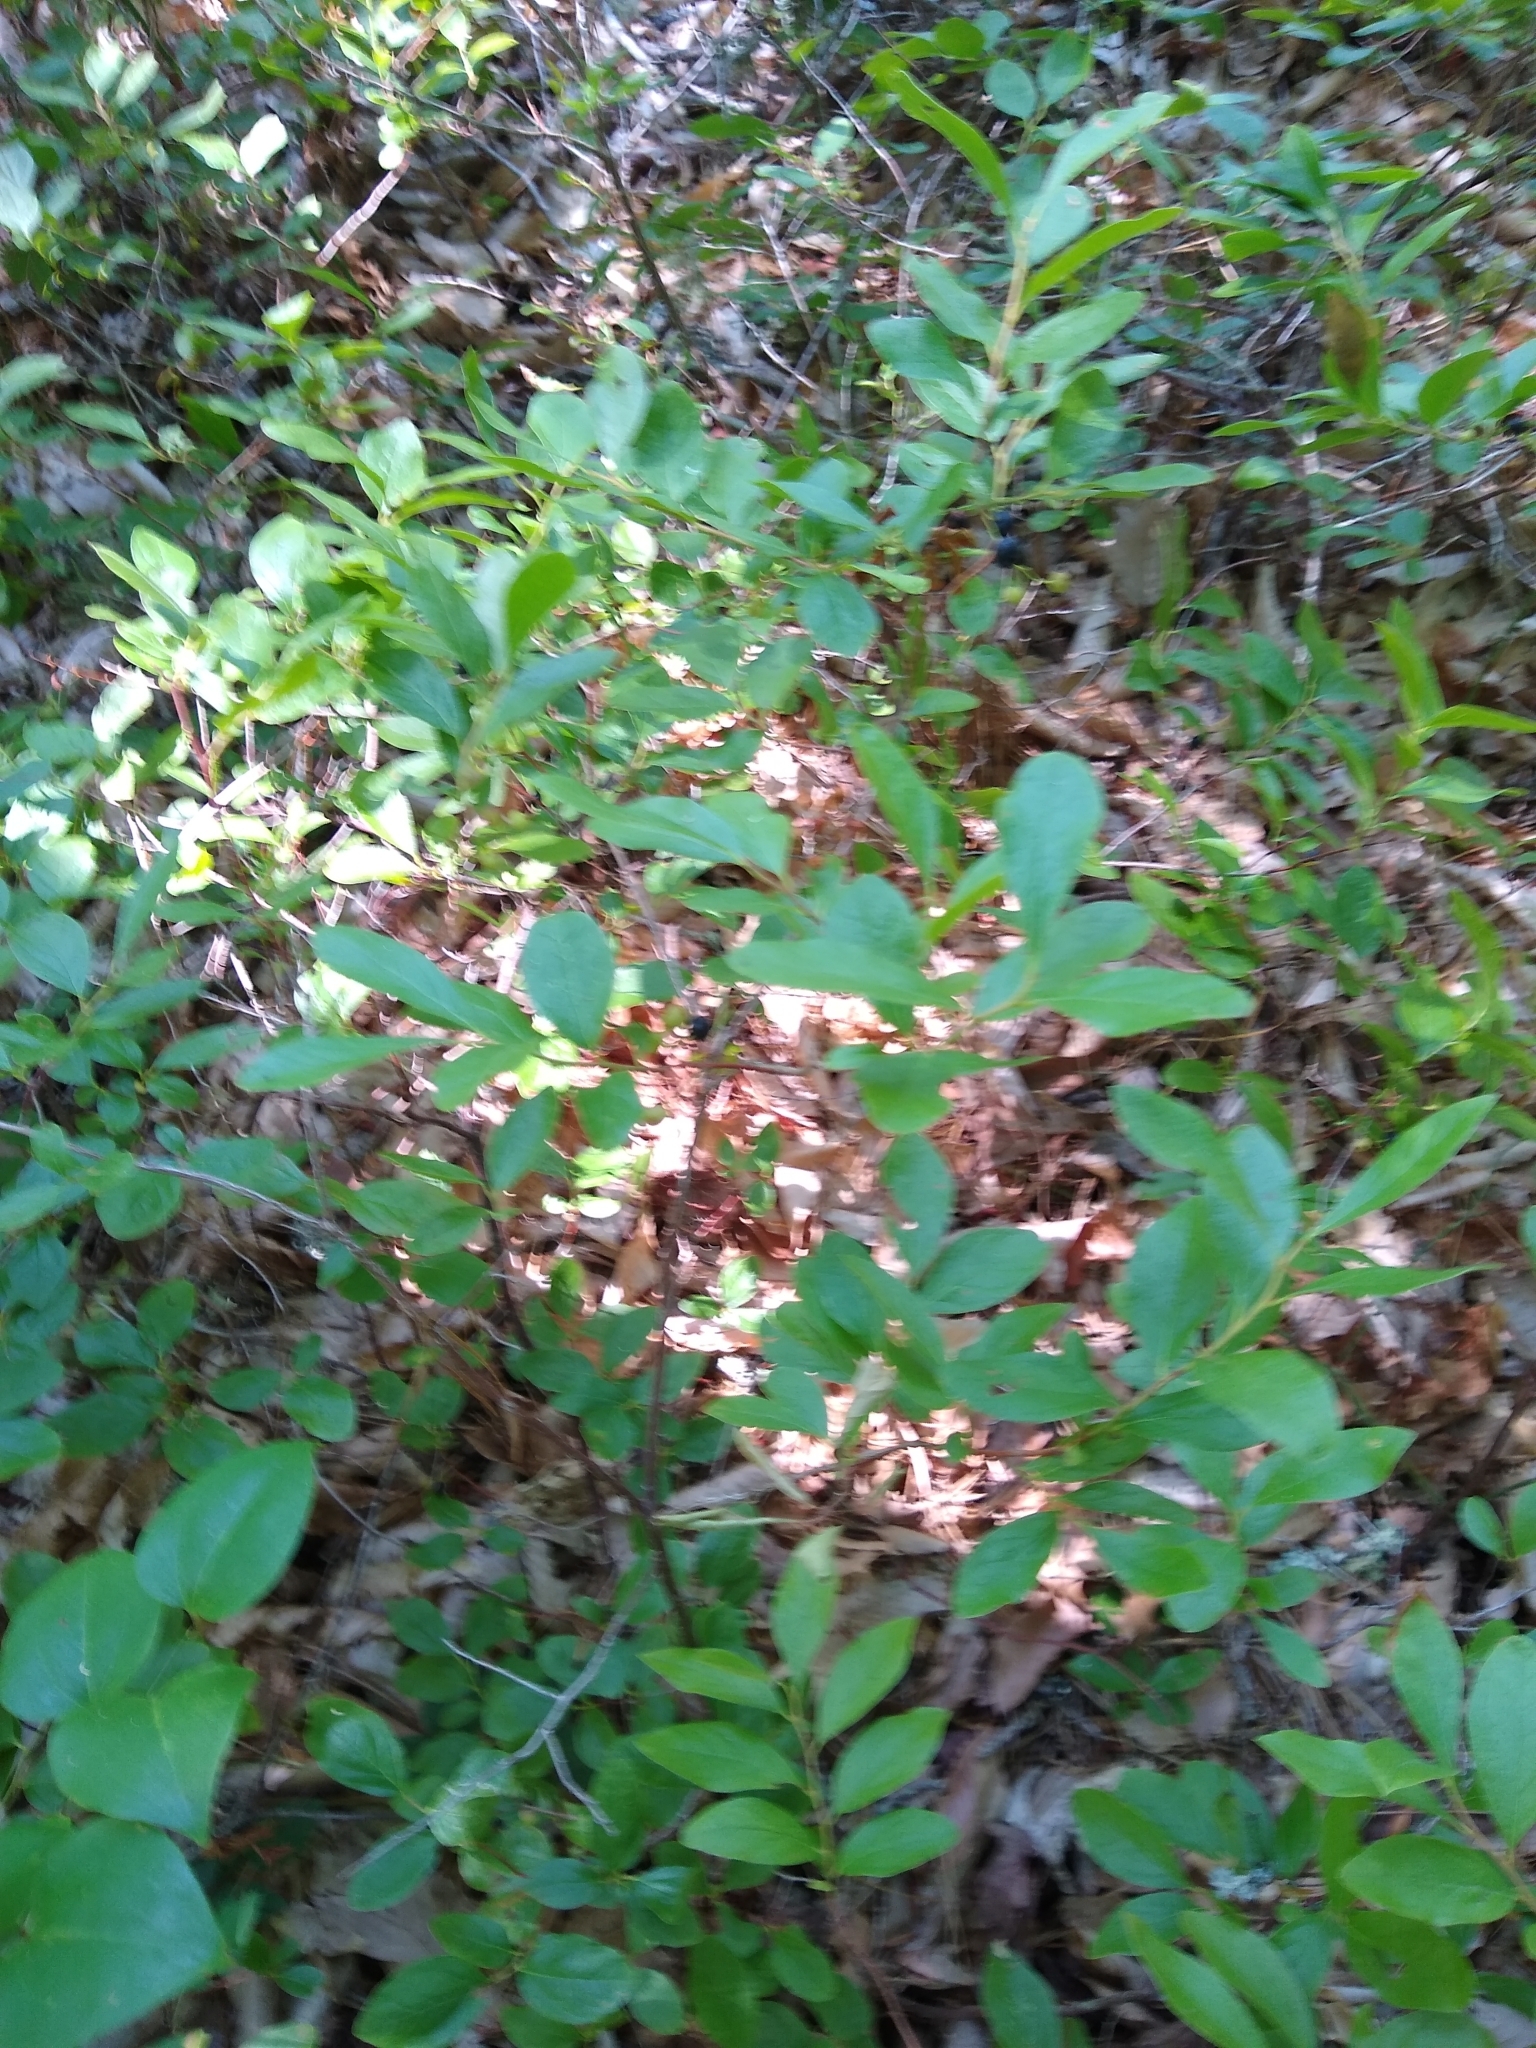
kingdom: Plantae
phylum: Tracheophyta
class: Magnoliopsida
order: Ericales
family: Ericaceae
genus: Gaylussacia
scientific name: Gaylussacia baccata
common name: Black huckleberry
